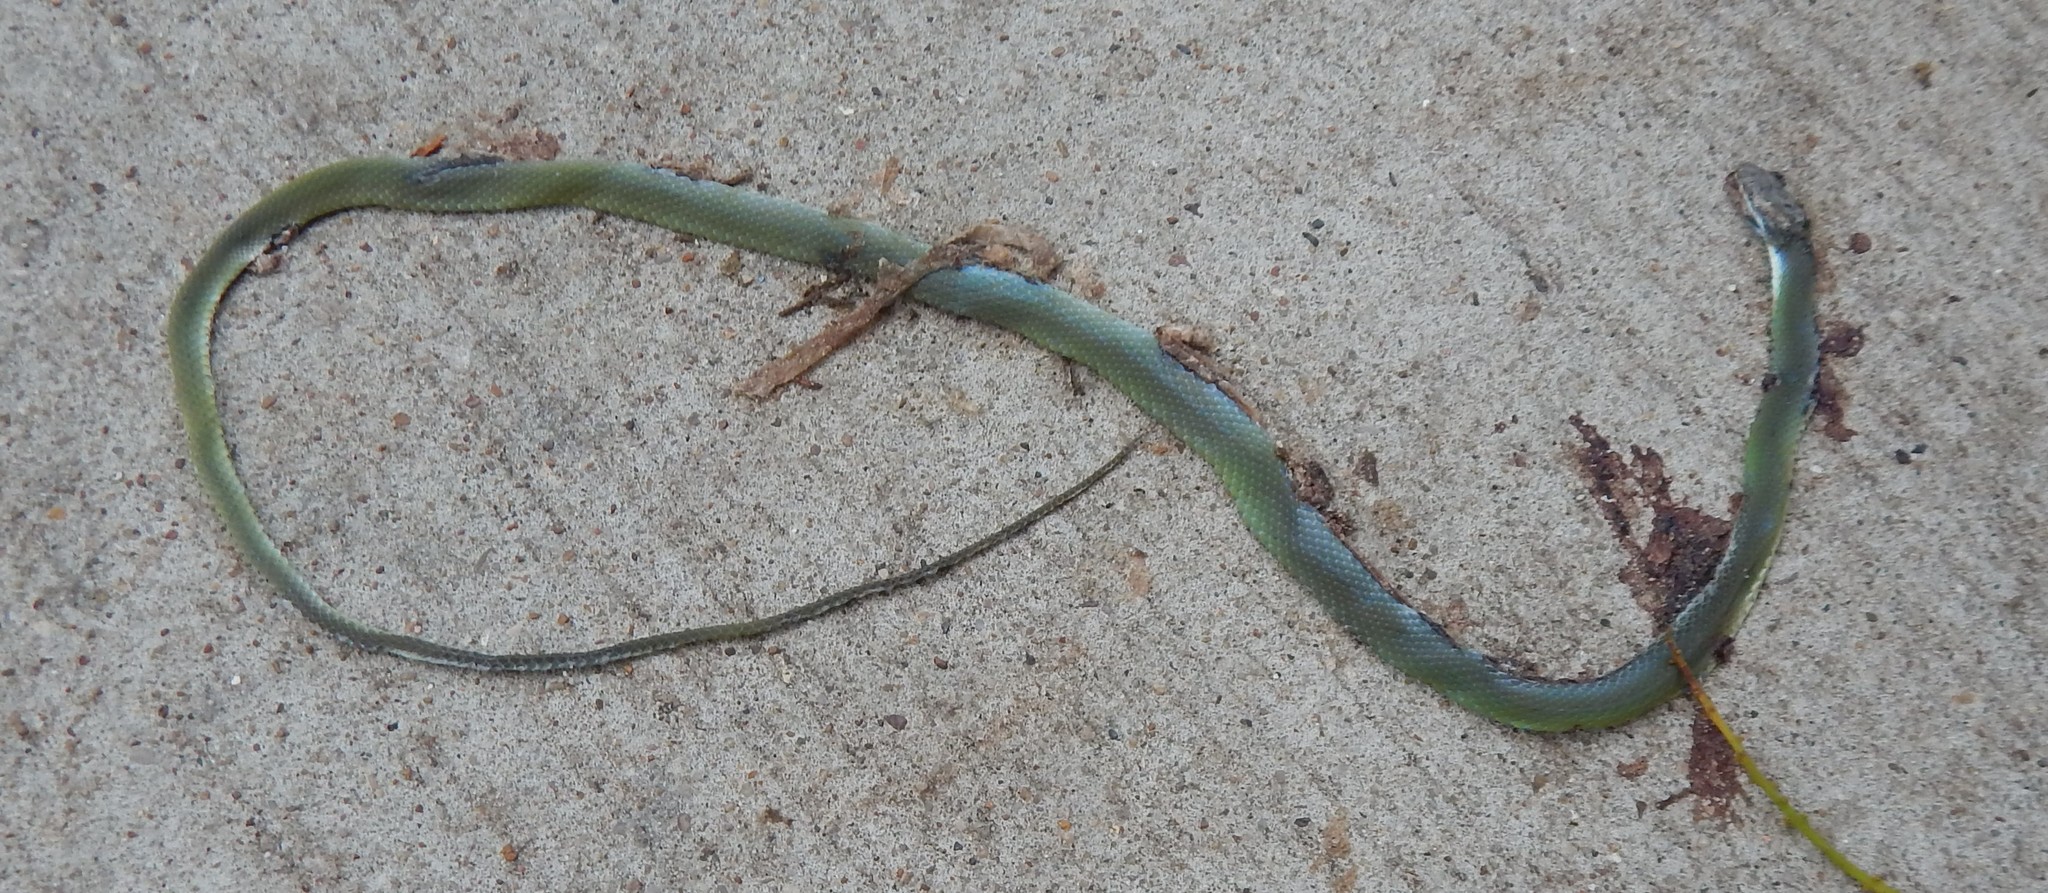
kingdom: Animalia
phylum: Chordata
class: Squamata
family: Colubridae
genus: Opheodrys
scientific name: Opheodrys aestivus
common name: Rough greensnake
